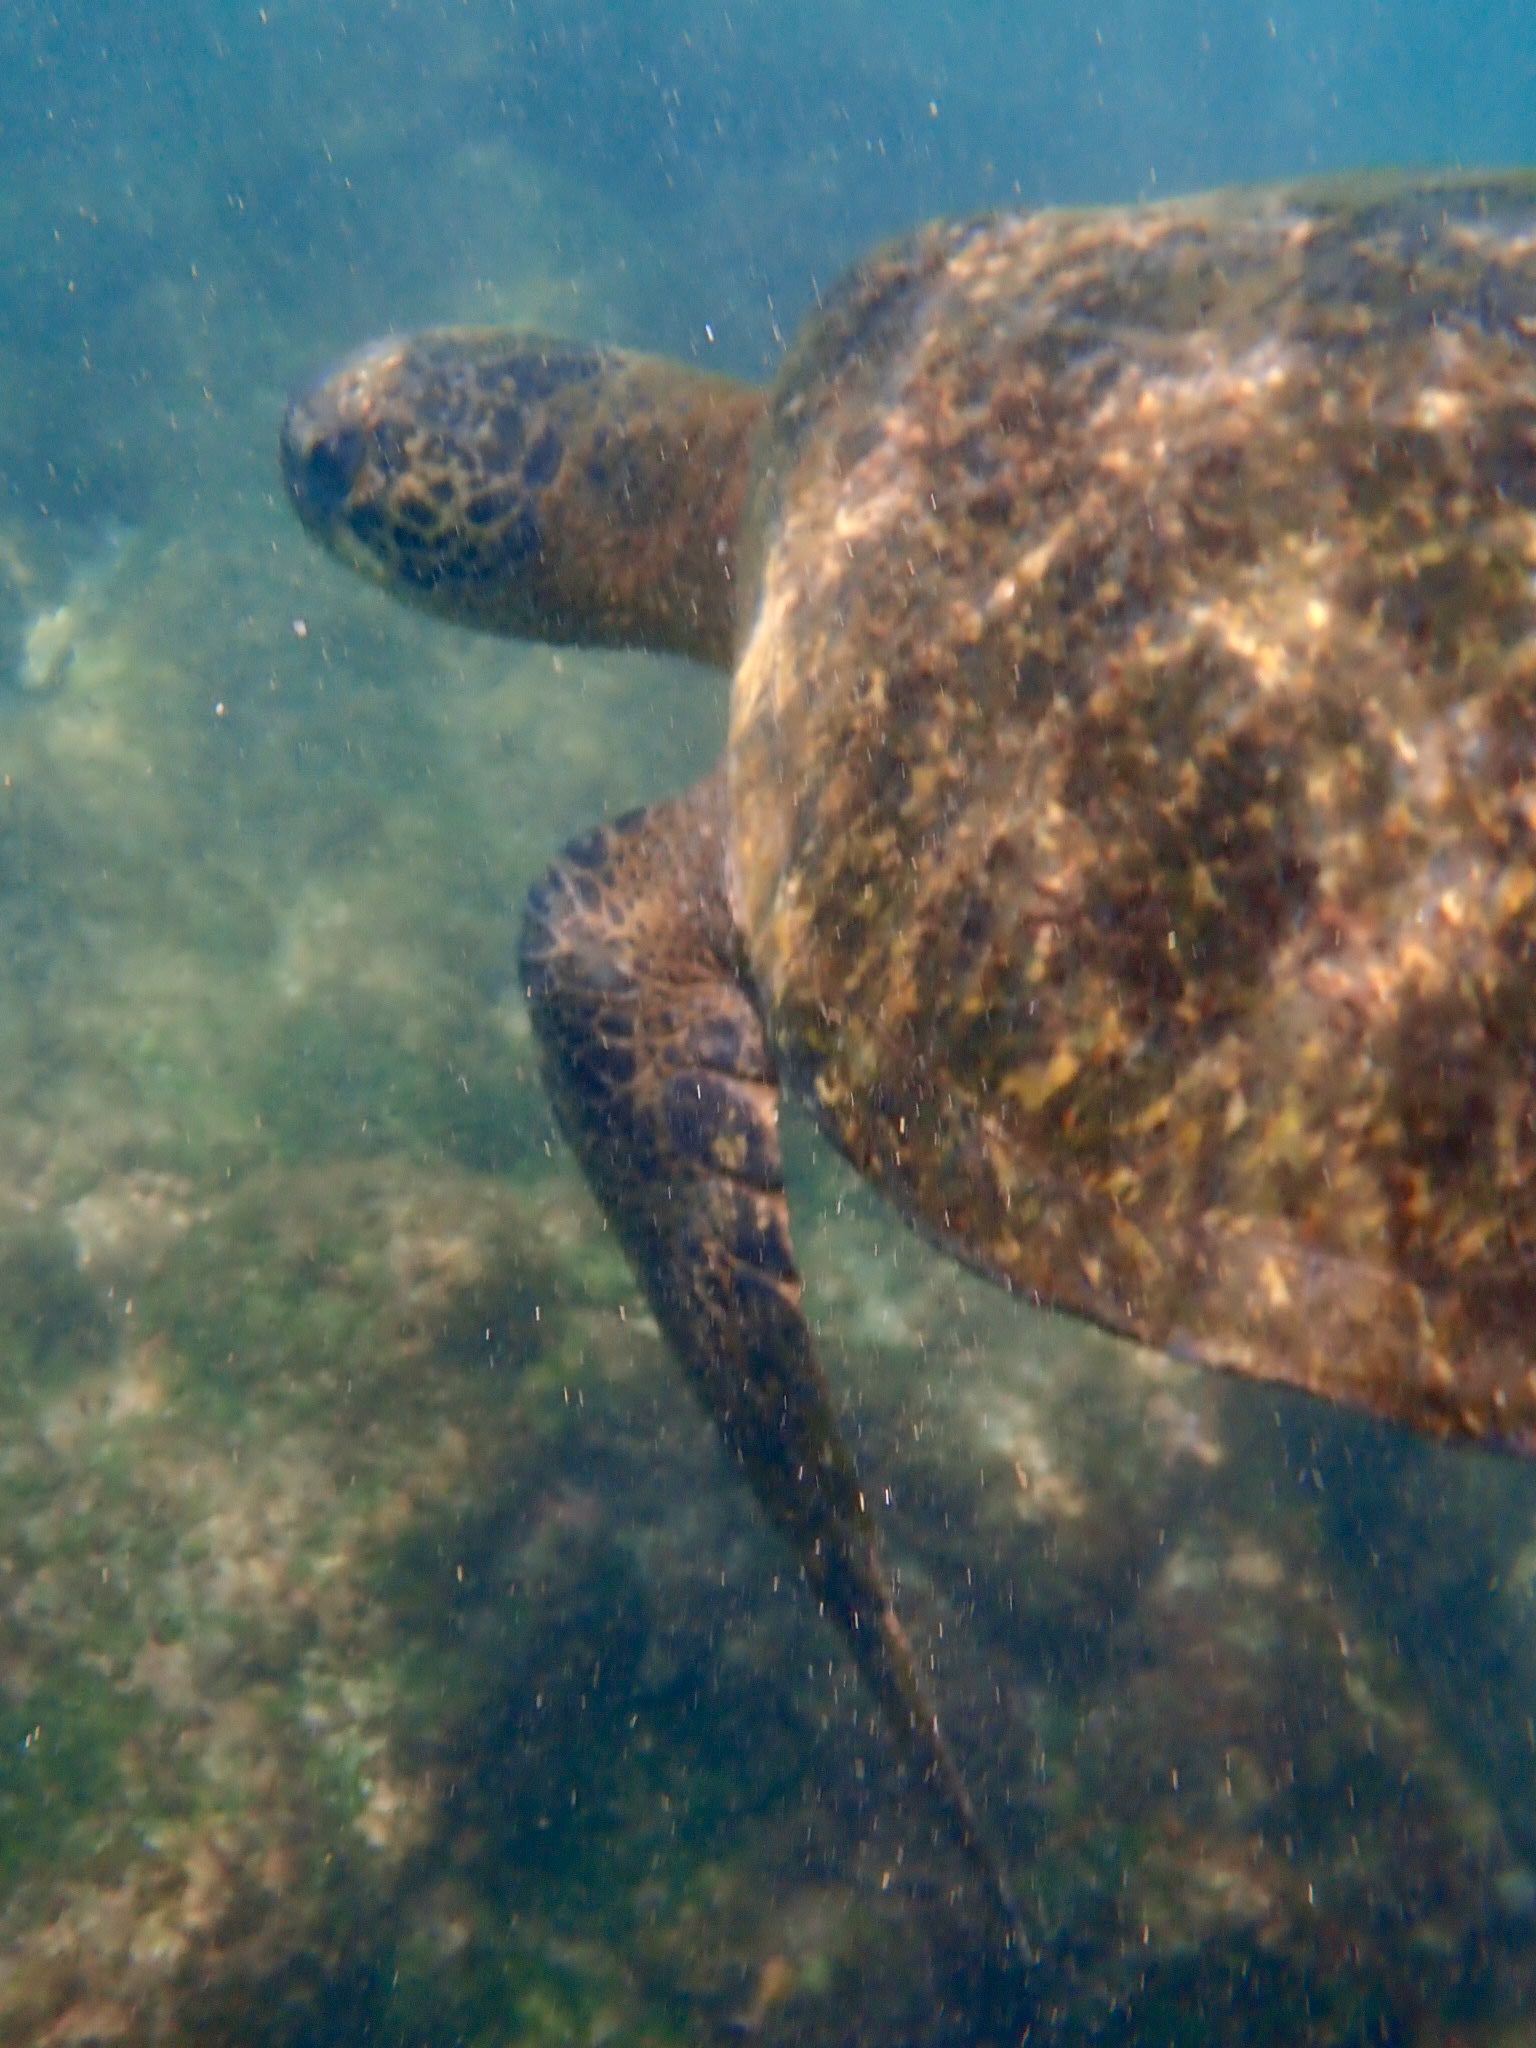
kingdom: Animalia
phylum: Chordata
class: Testudines
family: Cheloniidae
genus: Chelonia
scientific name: Chelonia mydas
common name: Green turtle
